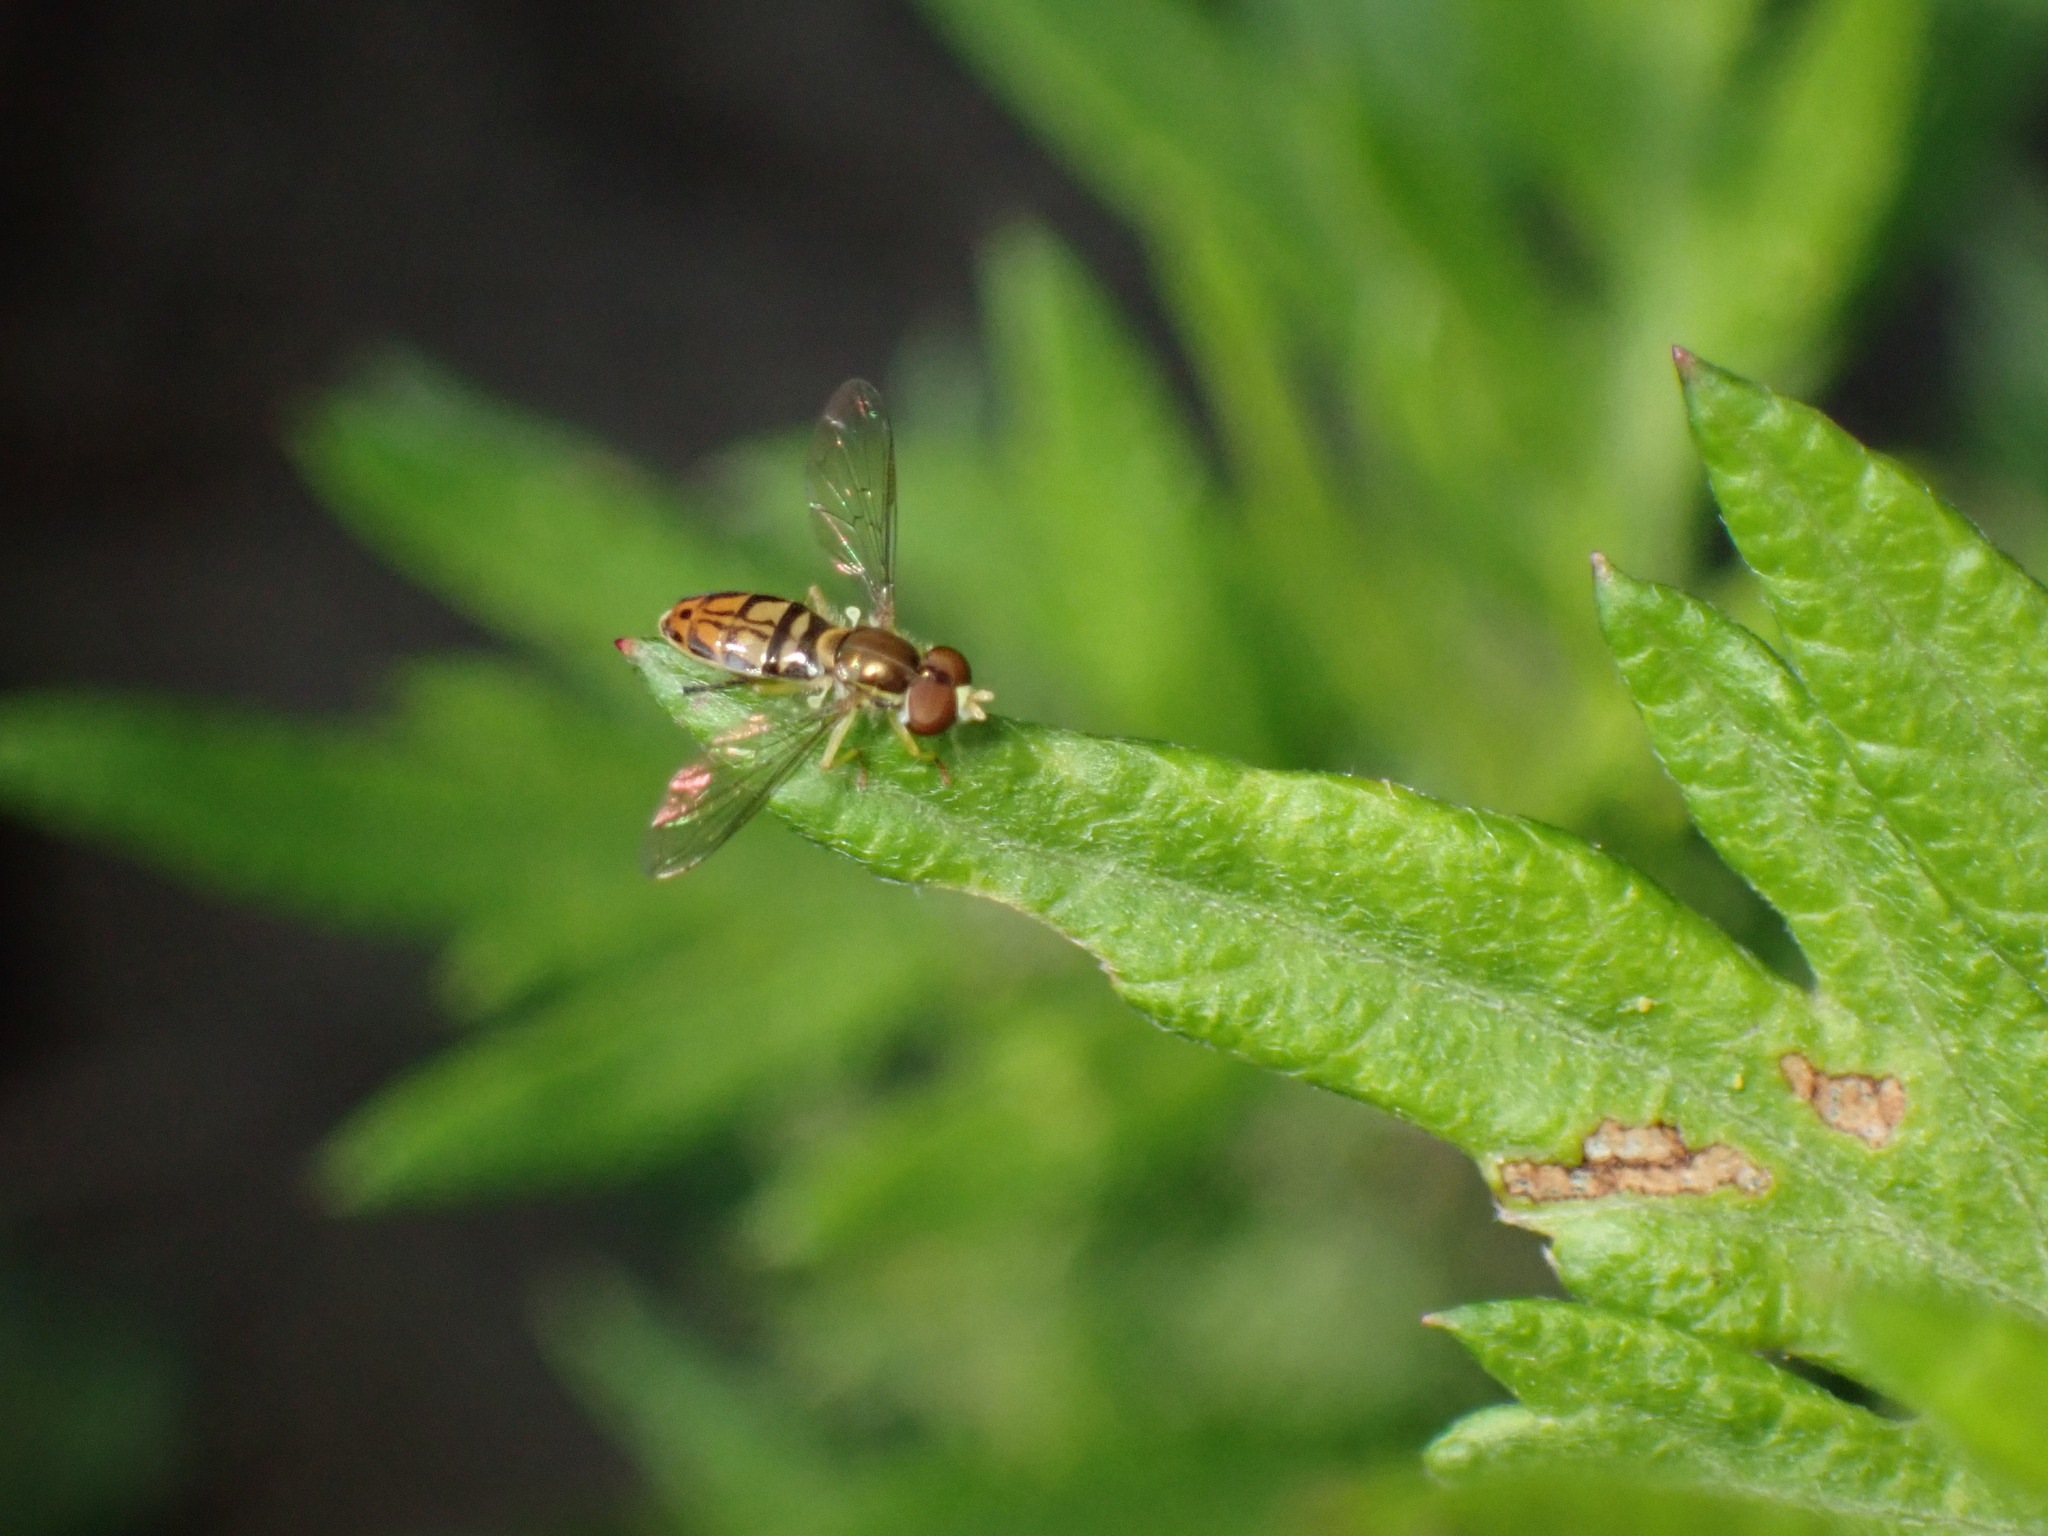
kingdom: Animalia
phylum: Arthropoda
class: Insecta
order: Diptera
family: Syrphidae
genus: Toxomerus
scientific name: Toxomerus marginatus
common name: Syrphid fly
